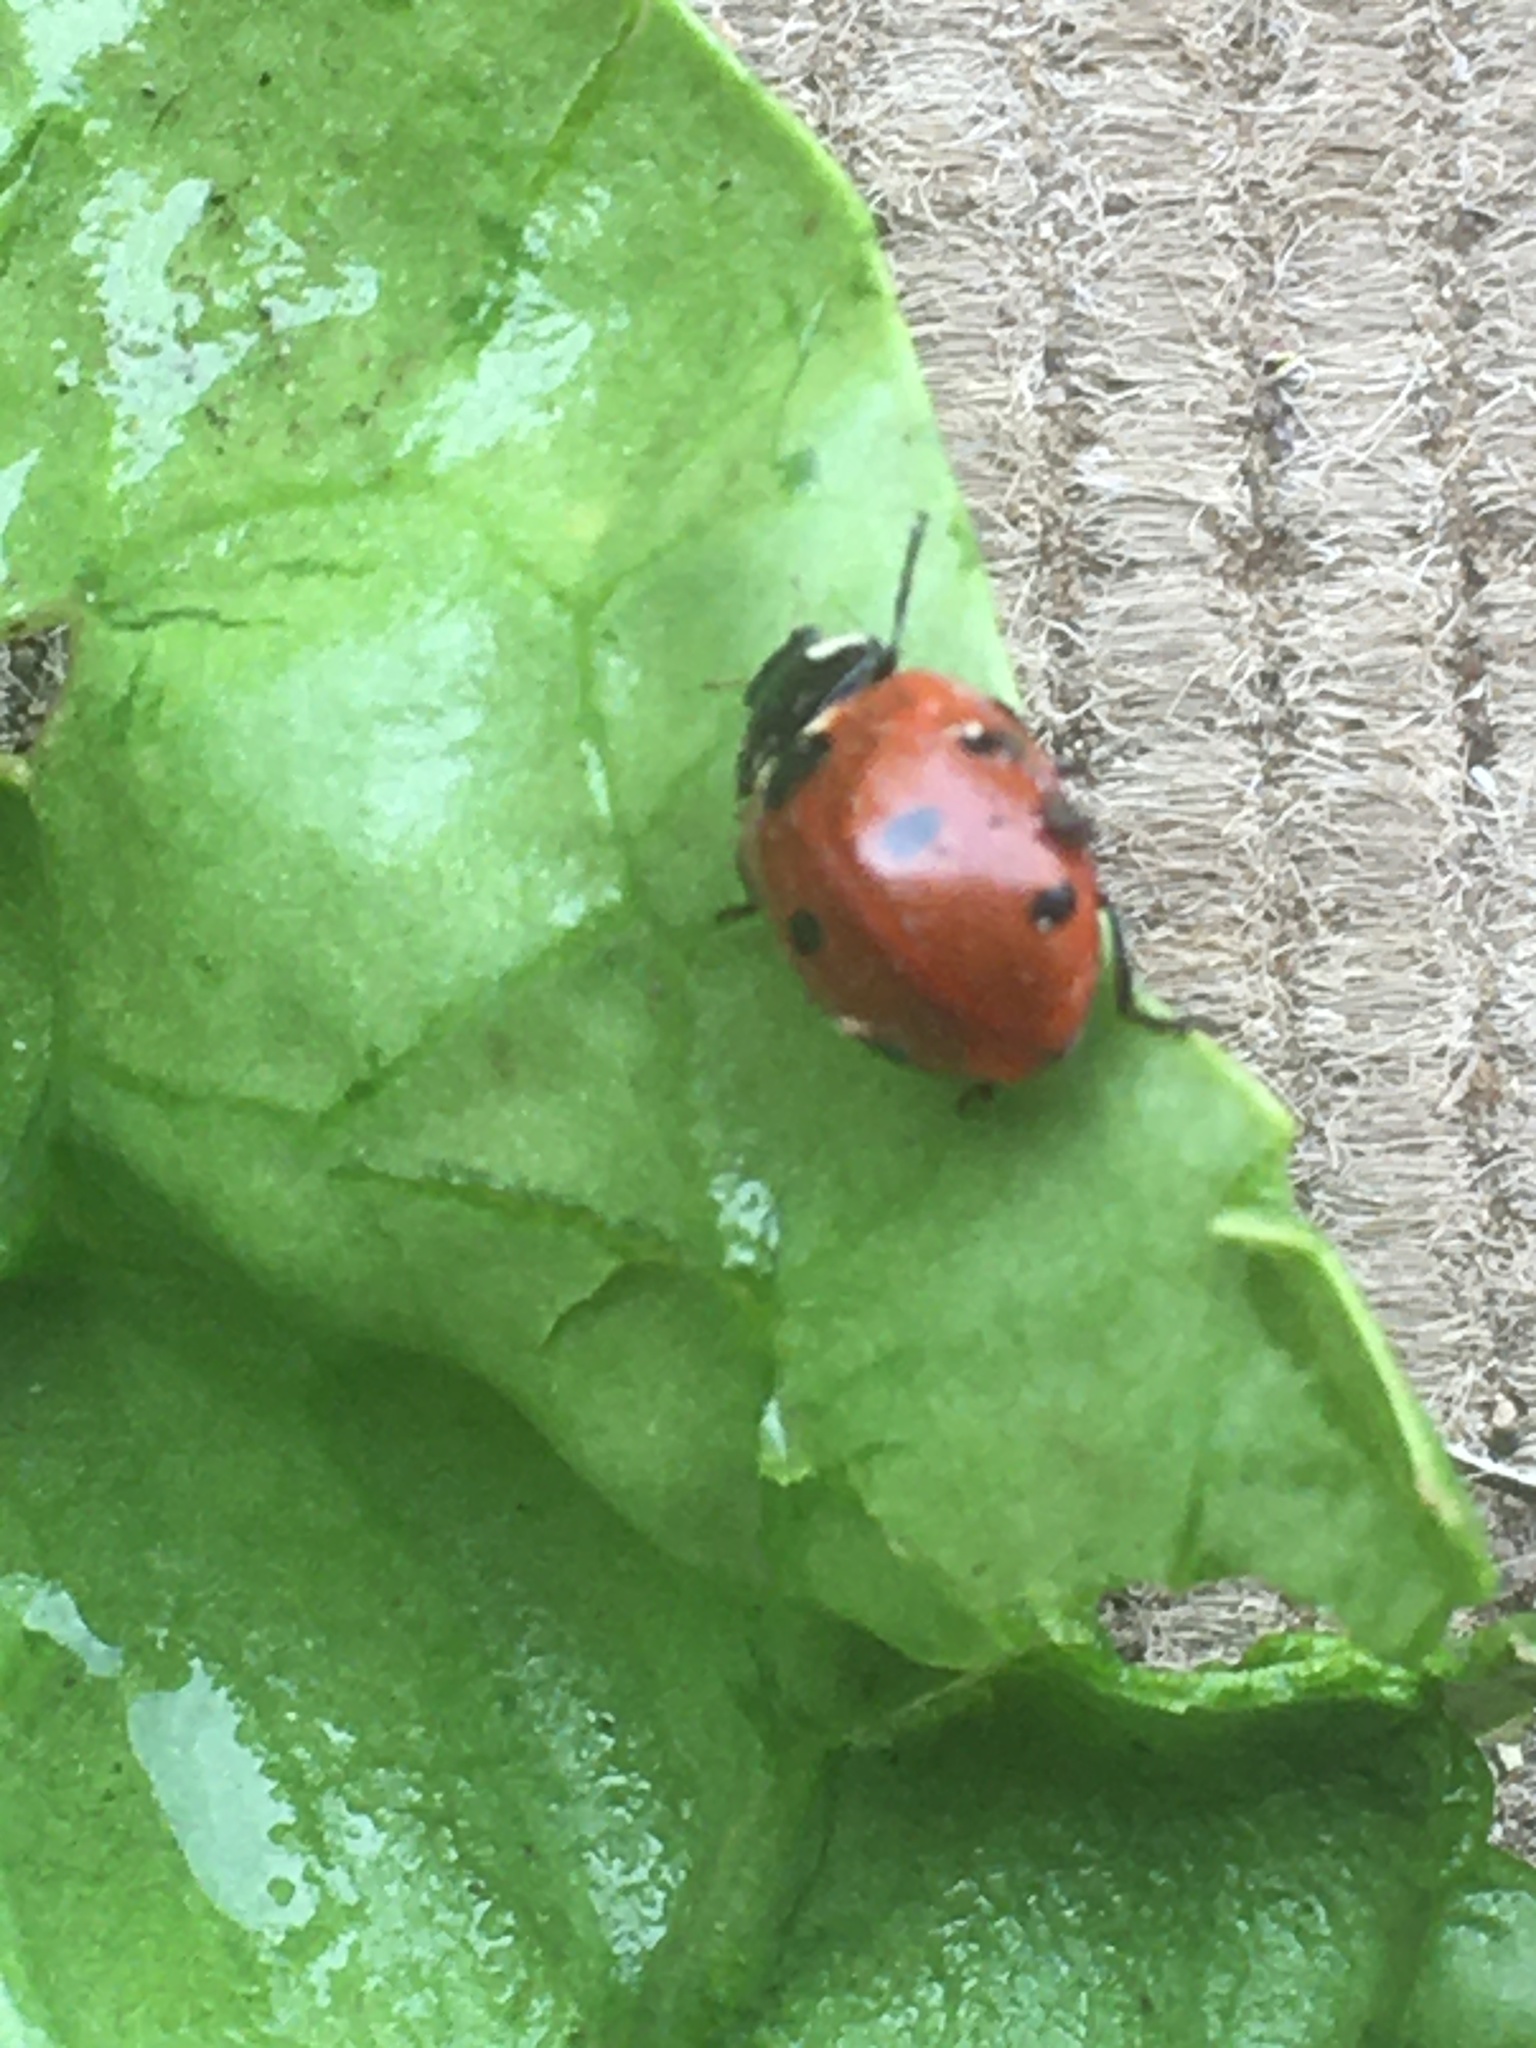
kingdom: Animalia
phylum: Arthropoda
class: Insecta
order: Coleoptera
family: Coccinellidae
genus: Coccinella
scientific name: Coccinella septempunctata
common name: Sevenspotted lady beetle
